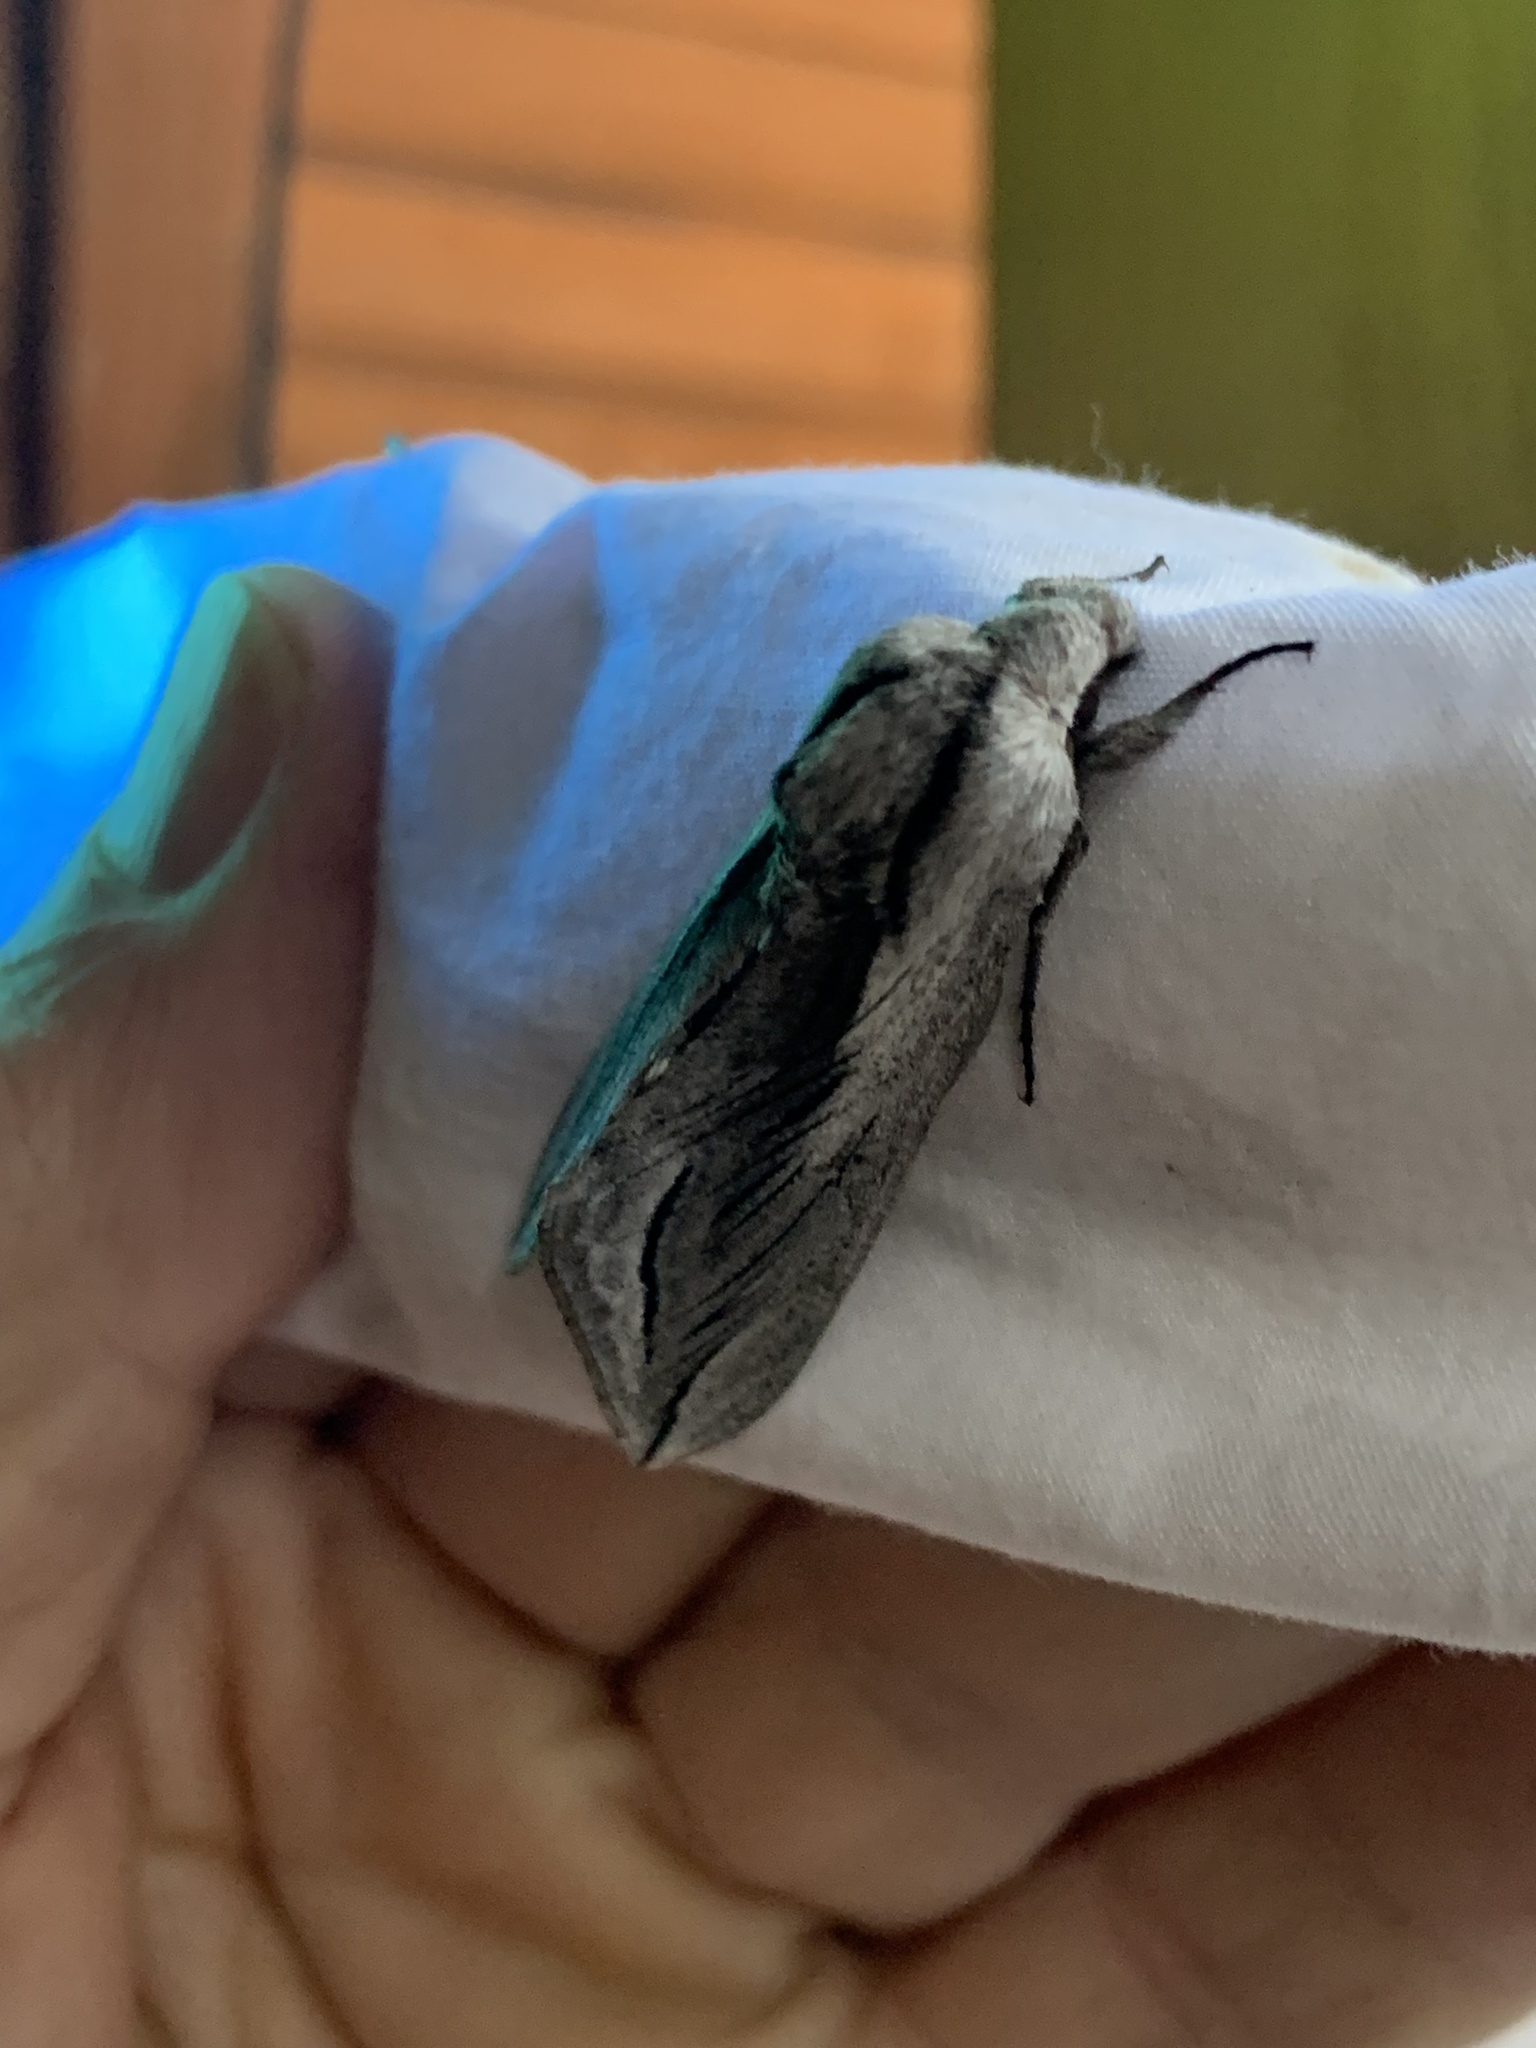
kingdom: Animalia
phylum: Arthropoda
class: Insecta
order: Lepidoptera
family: Sphingidae
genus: Sphinx
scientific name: Sphinx vashti
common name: Snowberry sphinx
